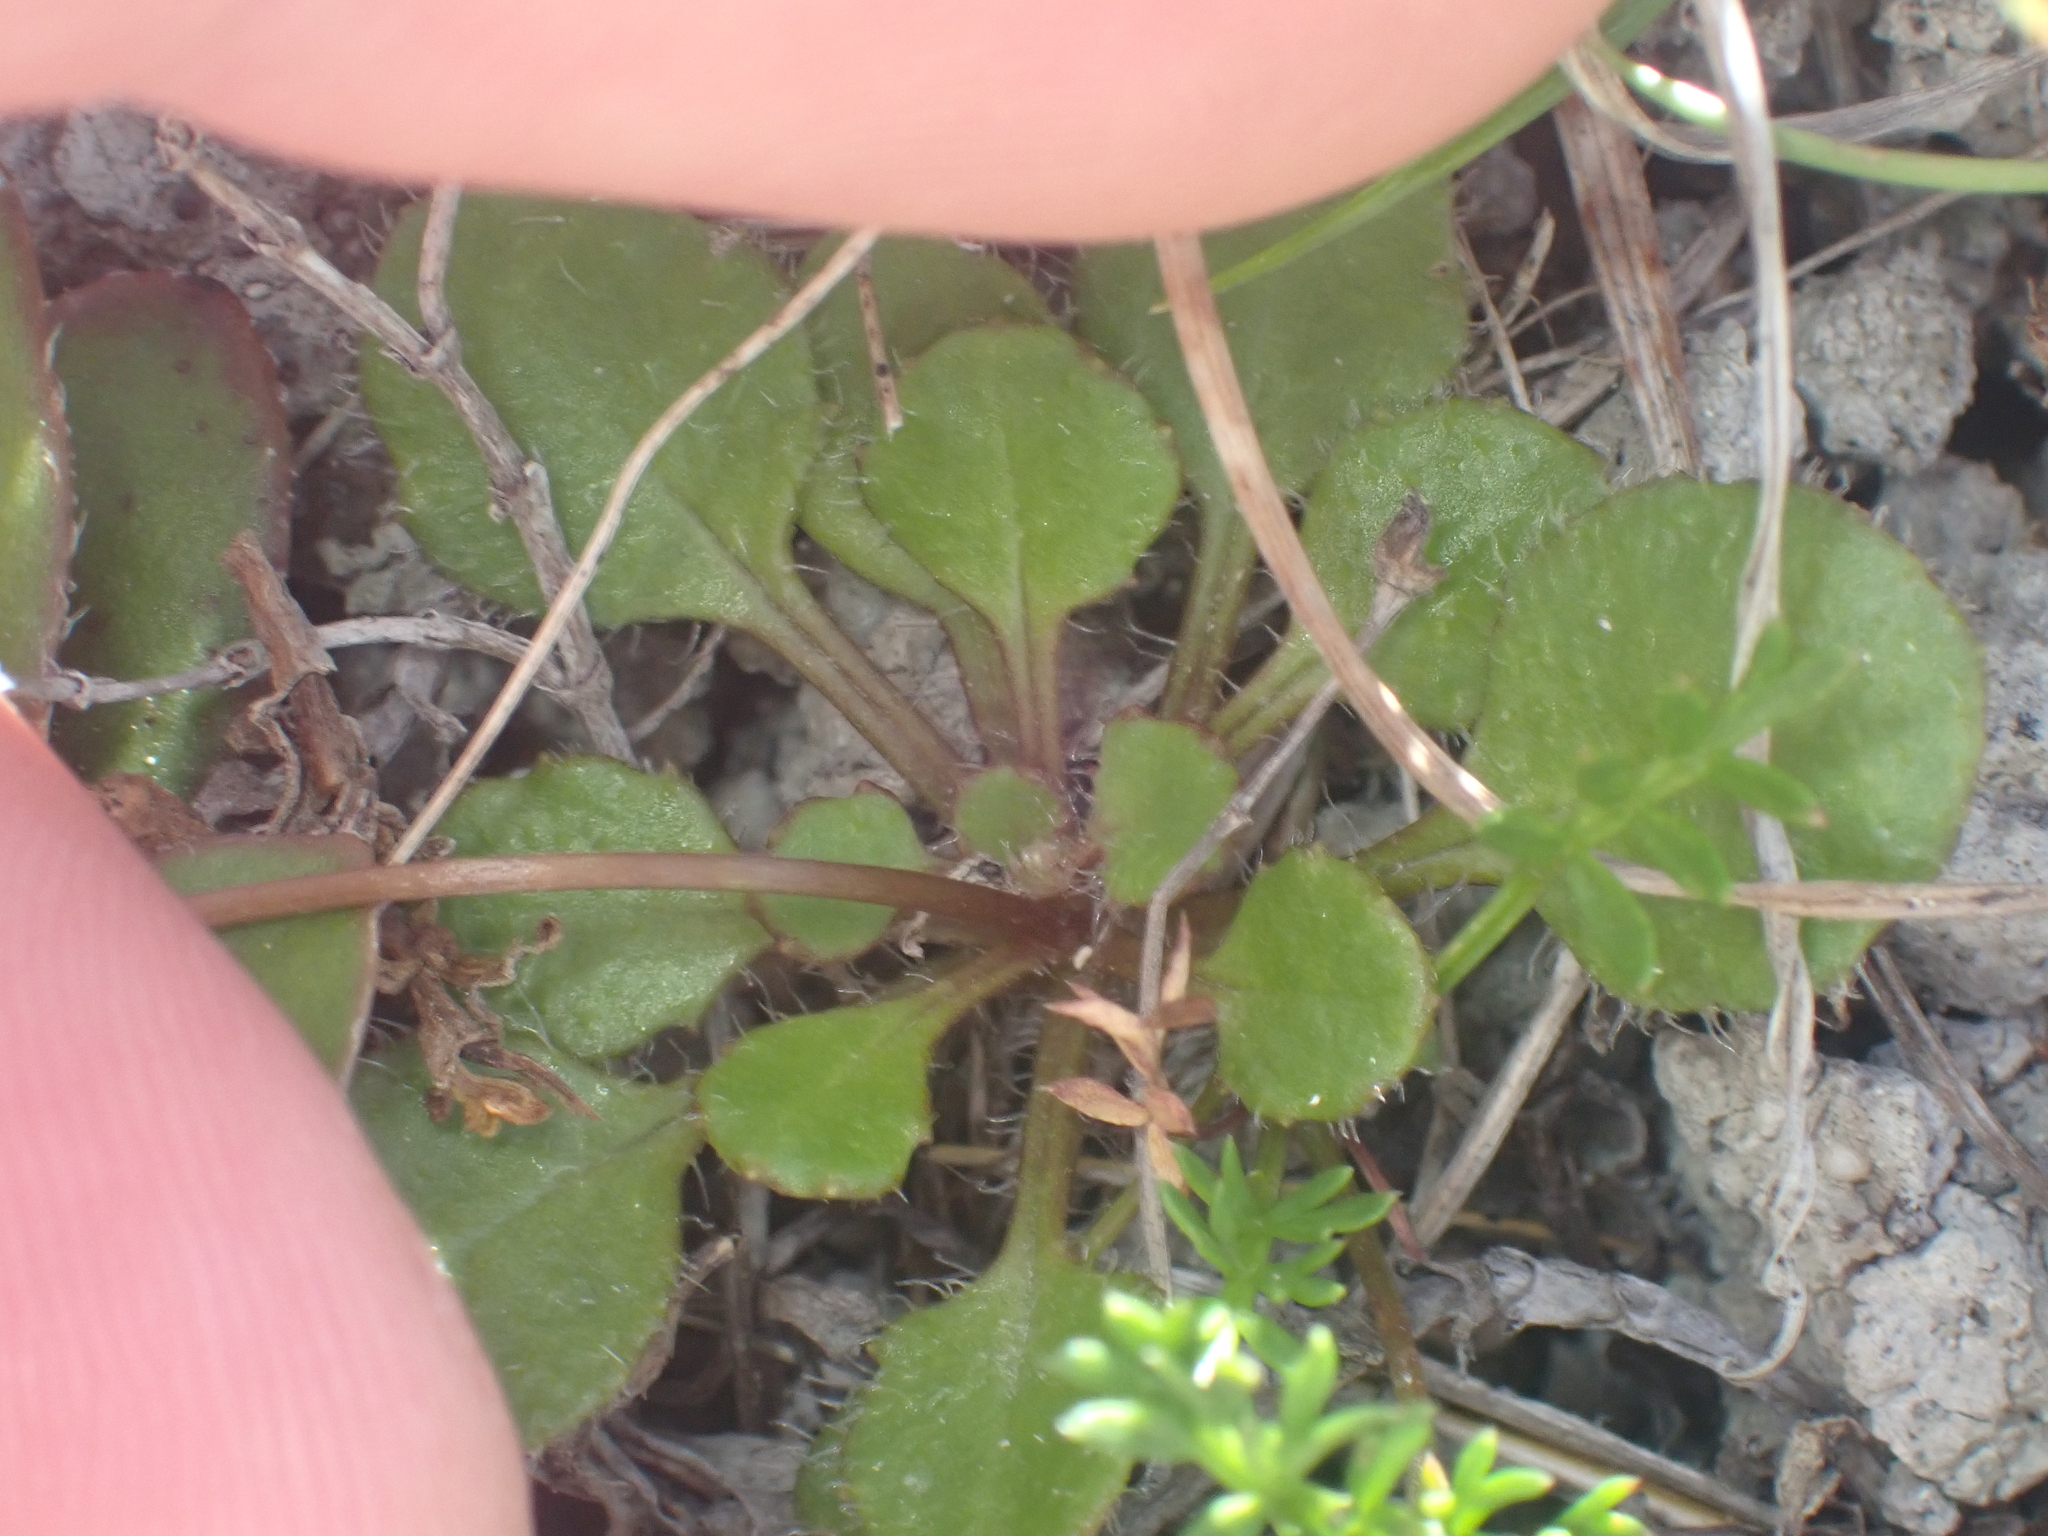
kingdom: Plantae
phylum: Tracheophyta
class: Magnoliopsida
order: Asterales
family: Asteraceae
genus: Lagenophora
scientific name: Lagenophora pumila
